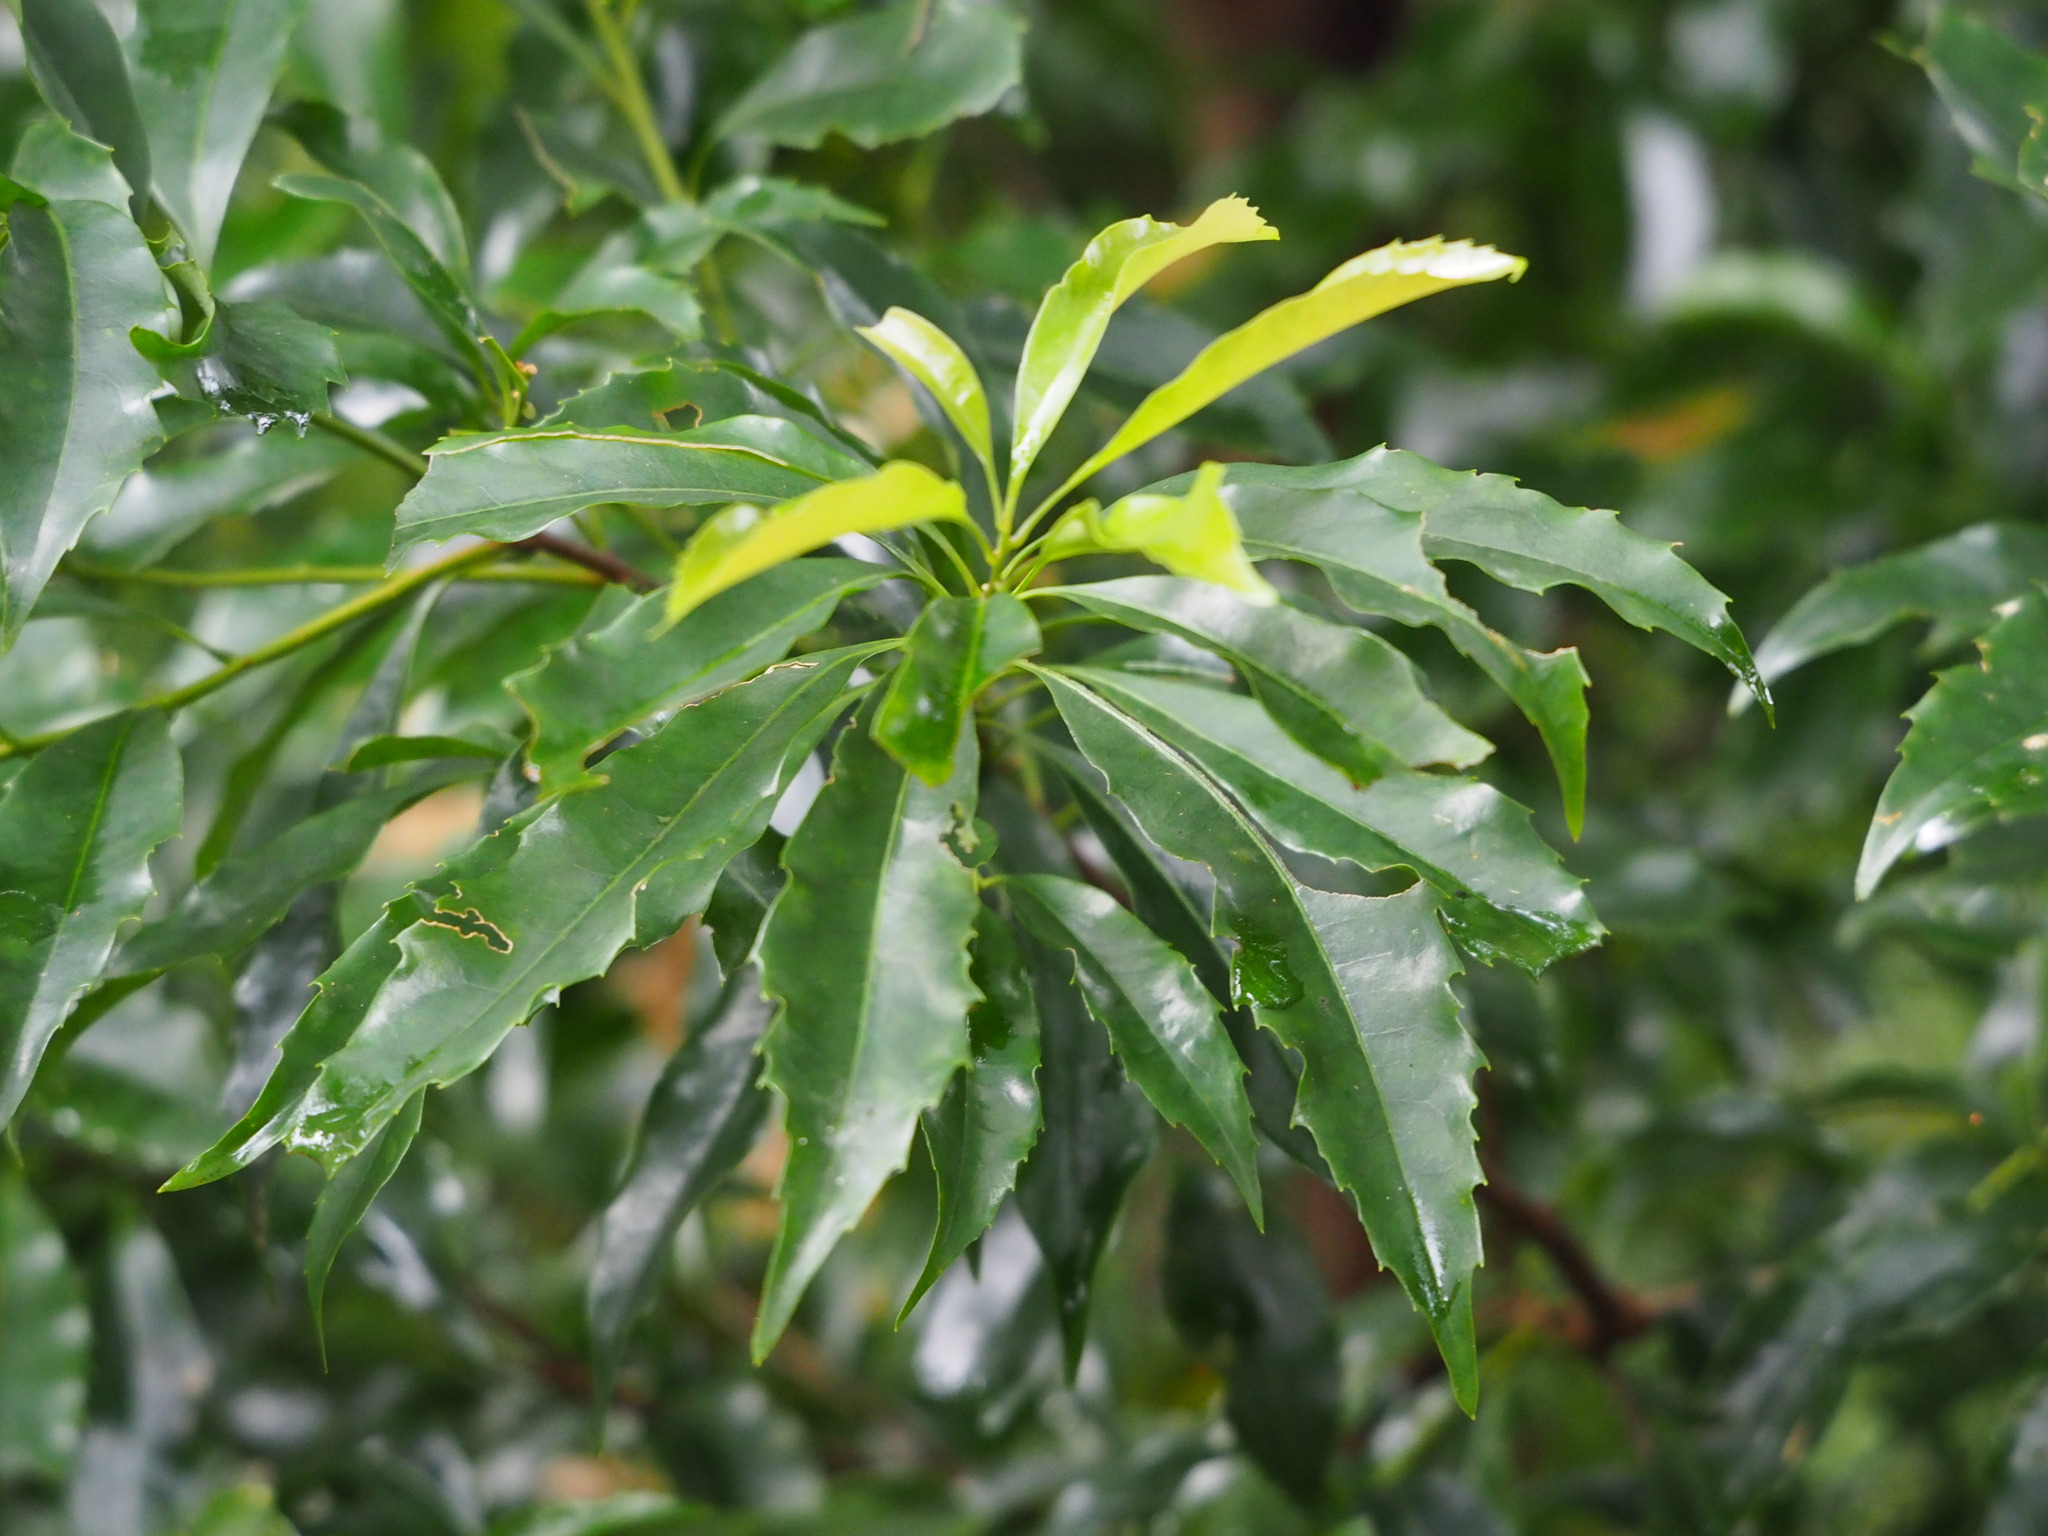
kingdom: Plantae
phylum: Tracheophyta
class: Magnoliopsida
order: Proteales
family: Proteaceae
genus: Helicia
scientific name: Helicia cochinchinensis
